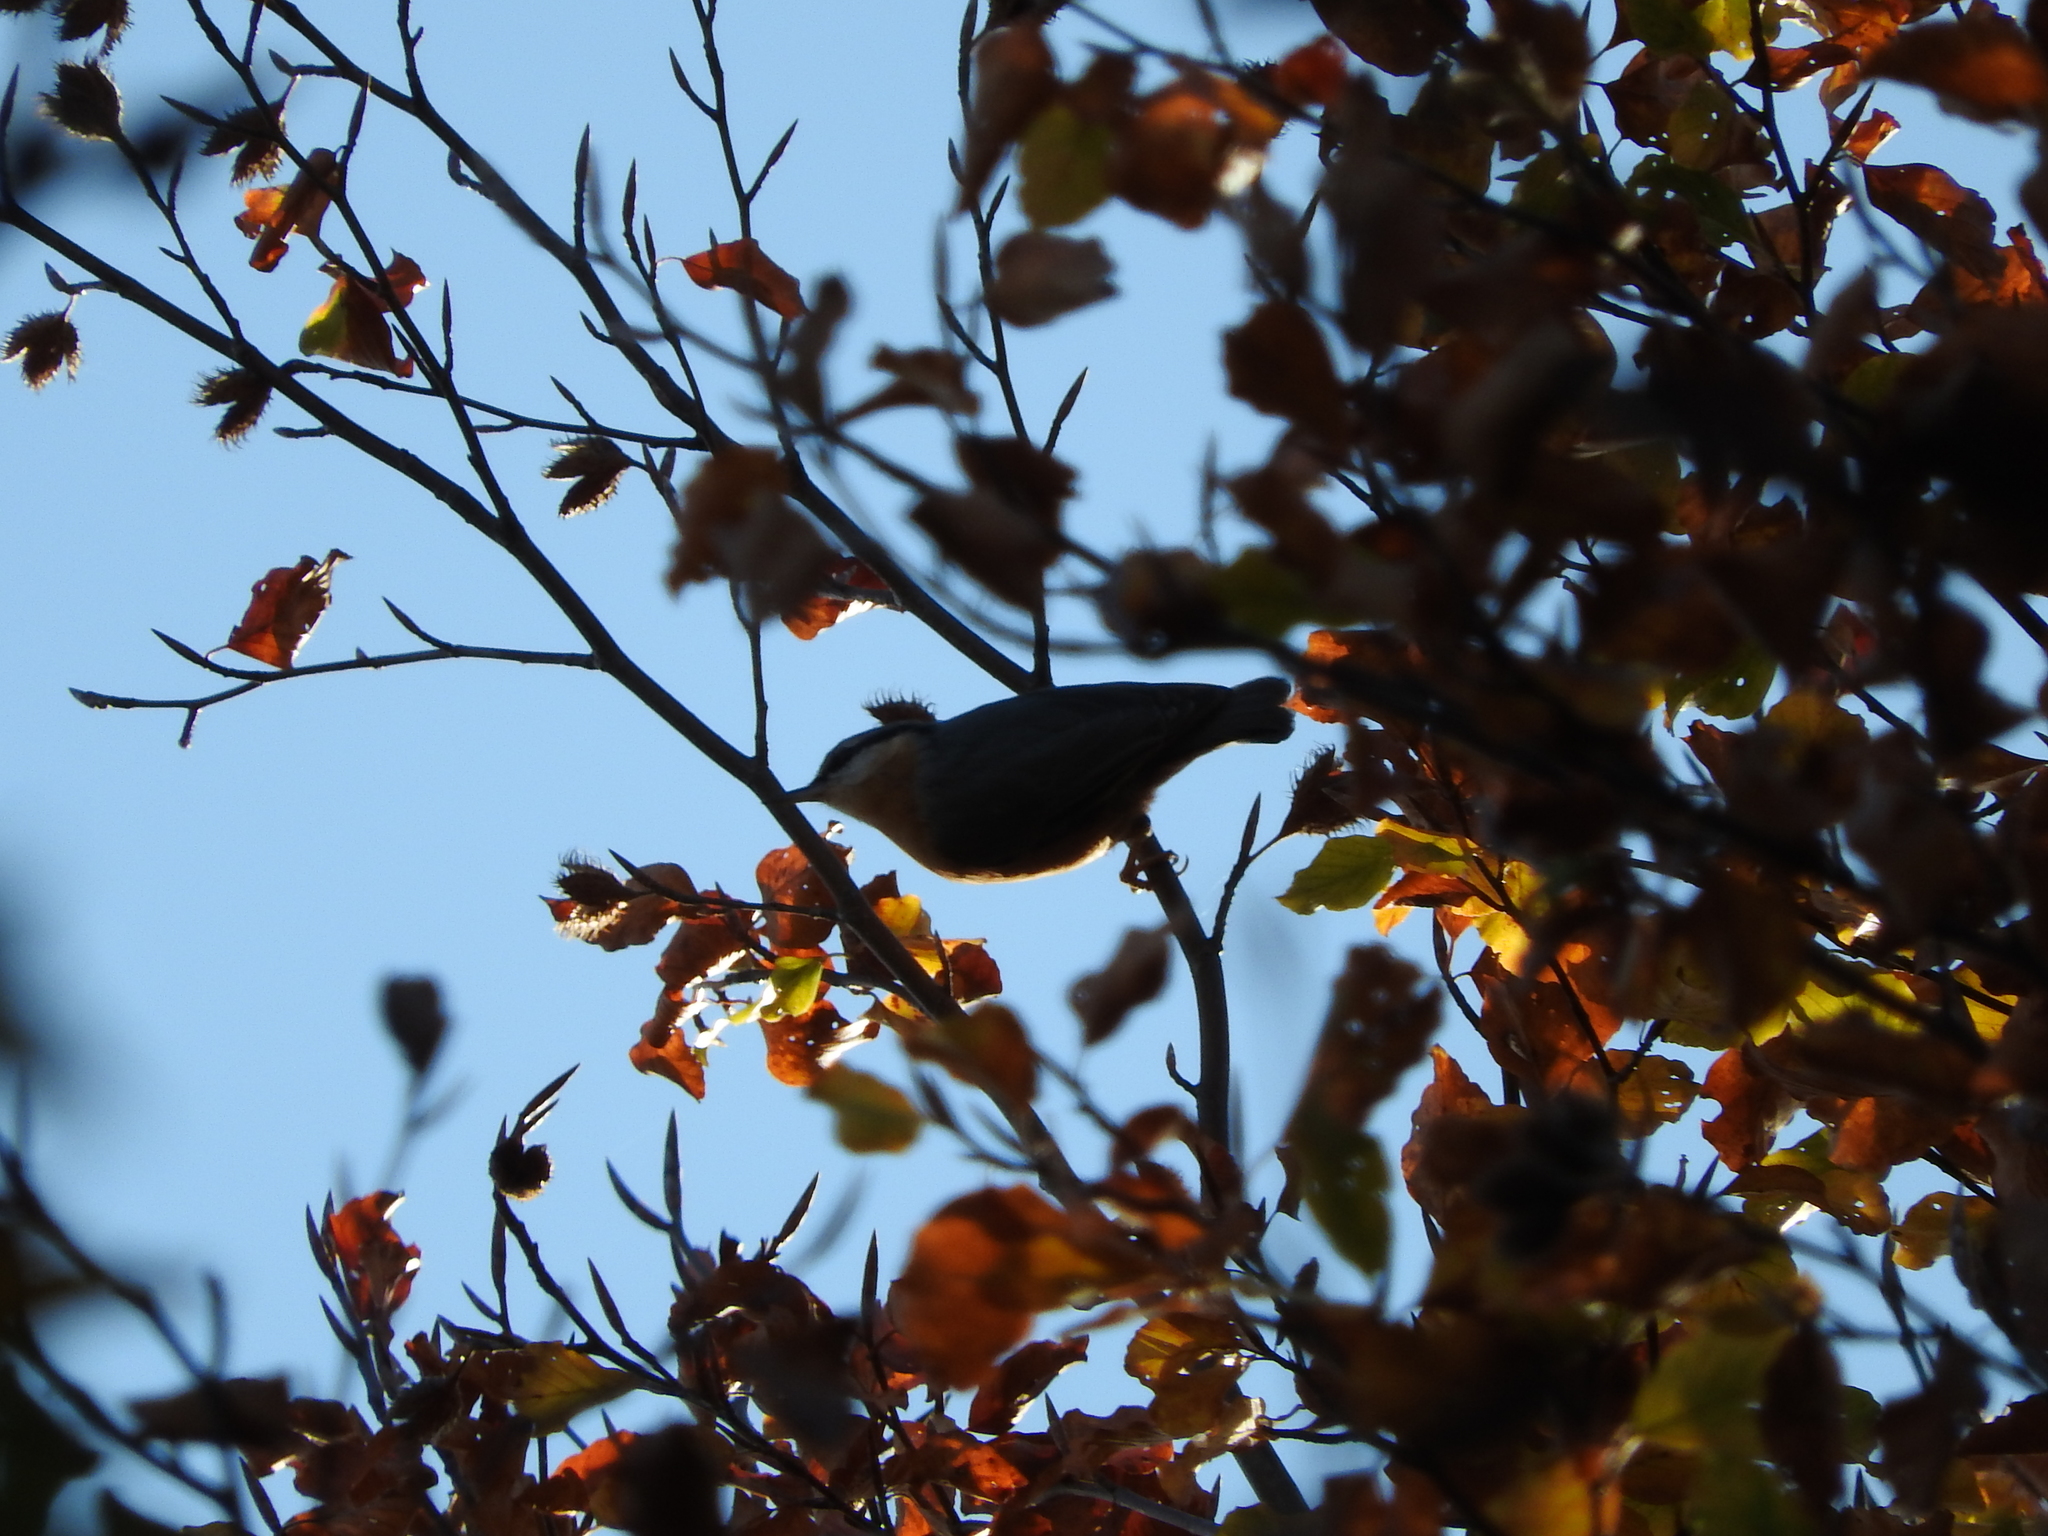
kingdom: Animalia
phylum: Chordata
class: Aves
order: Passeriformes
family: Sittidae
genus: Sitta
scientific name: Sitta europaea
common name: Eurasian nuthatch
